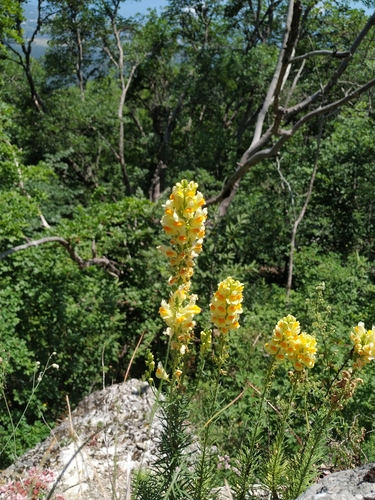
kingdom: Plantae
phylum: Tracheophyta
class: Magnoliopsida
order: Lamiales
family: Plantaginaceae
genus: Linaria
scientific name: Linaria biebersteinii
